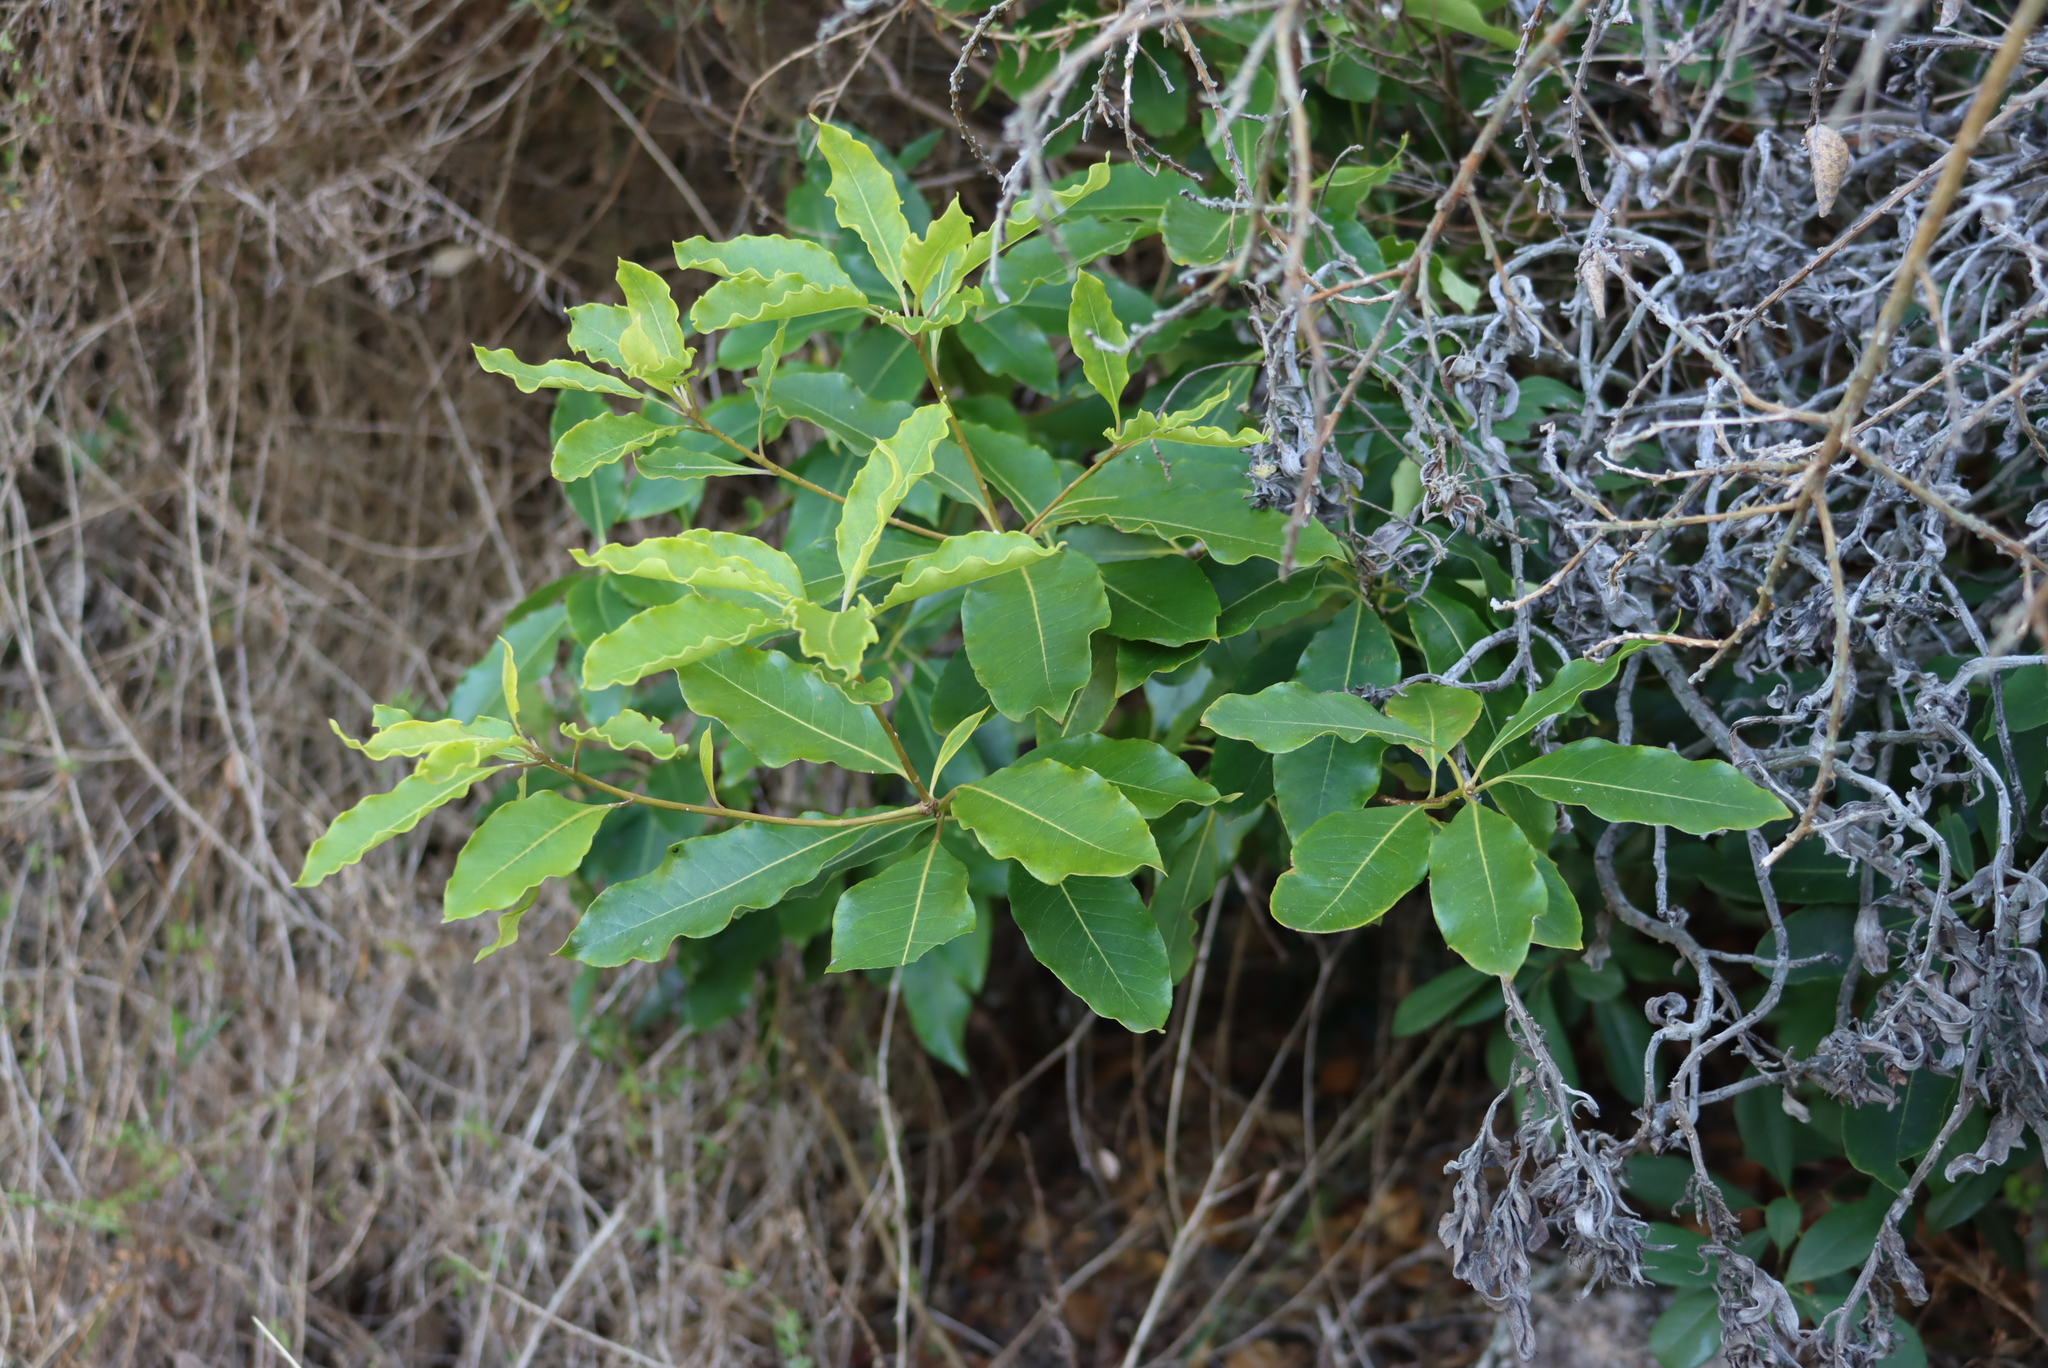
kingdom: Plantae
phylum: Tracheophyta
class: Magnoliopsida
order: Apiales
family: Pittosporaceae
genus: Pittosporum
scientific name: Pittosporum undulatum
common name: Australian cheesewood
